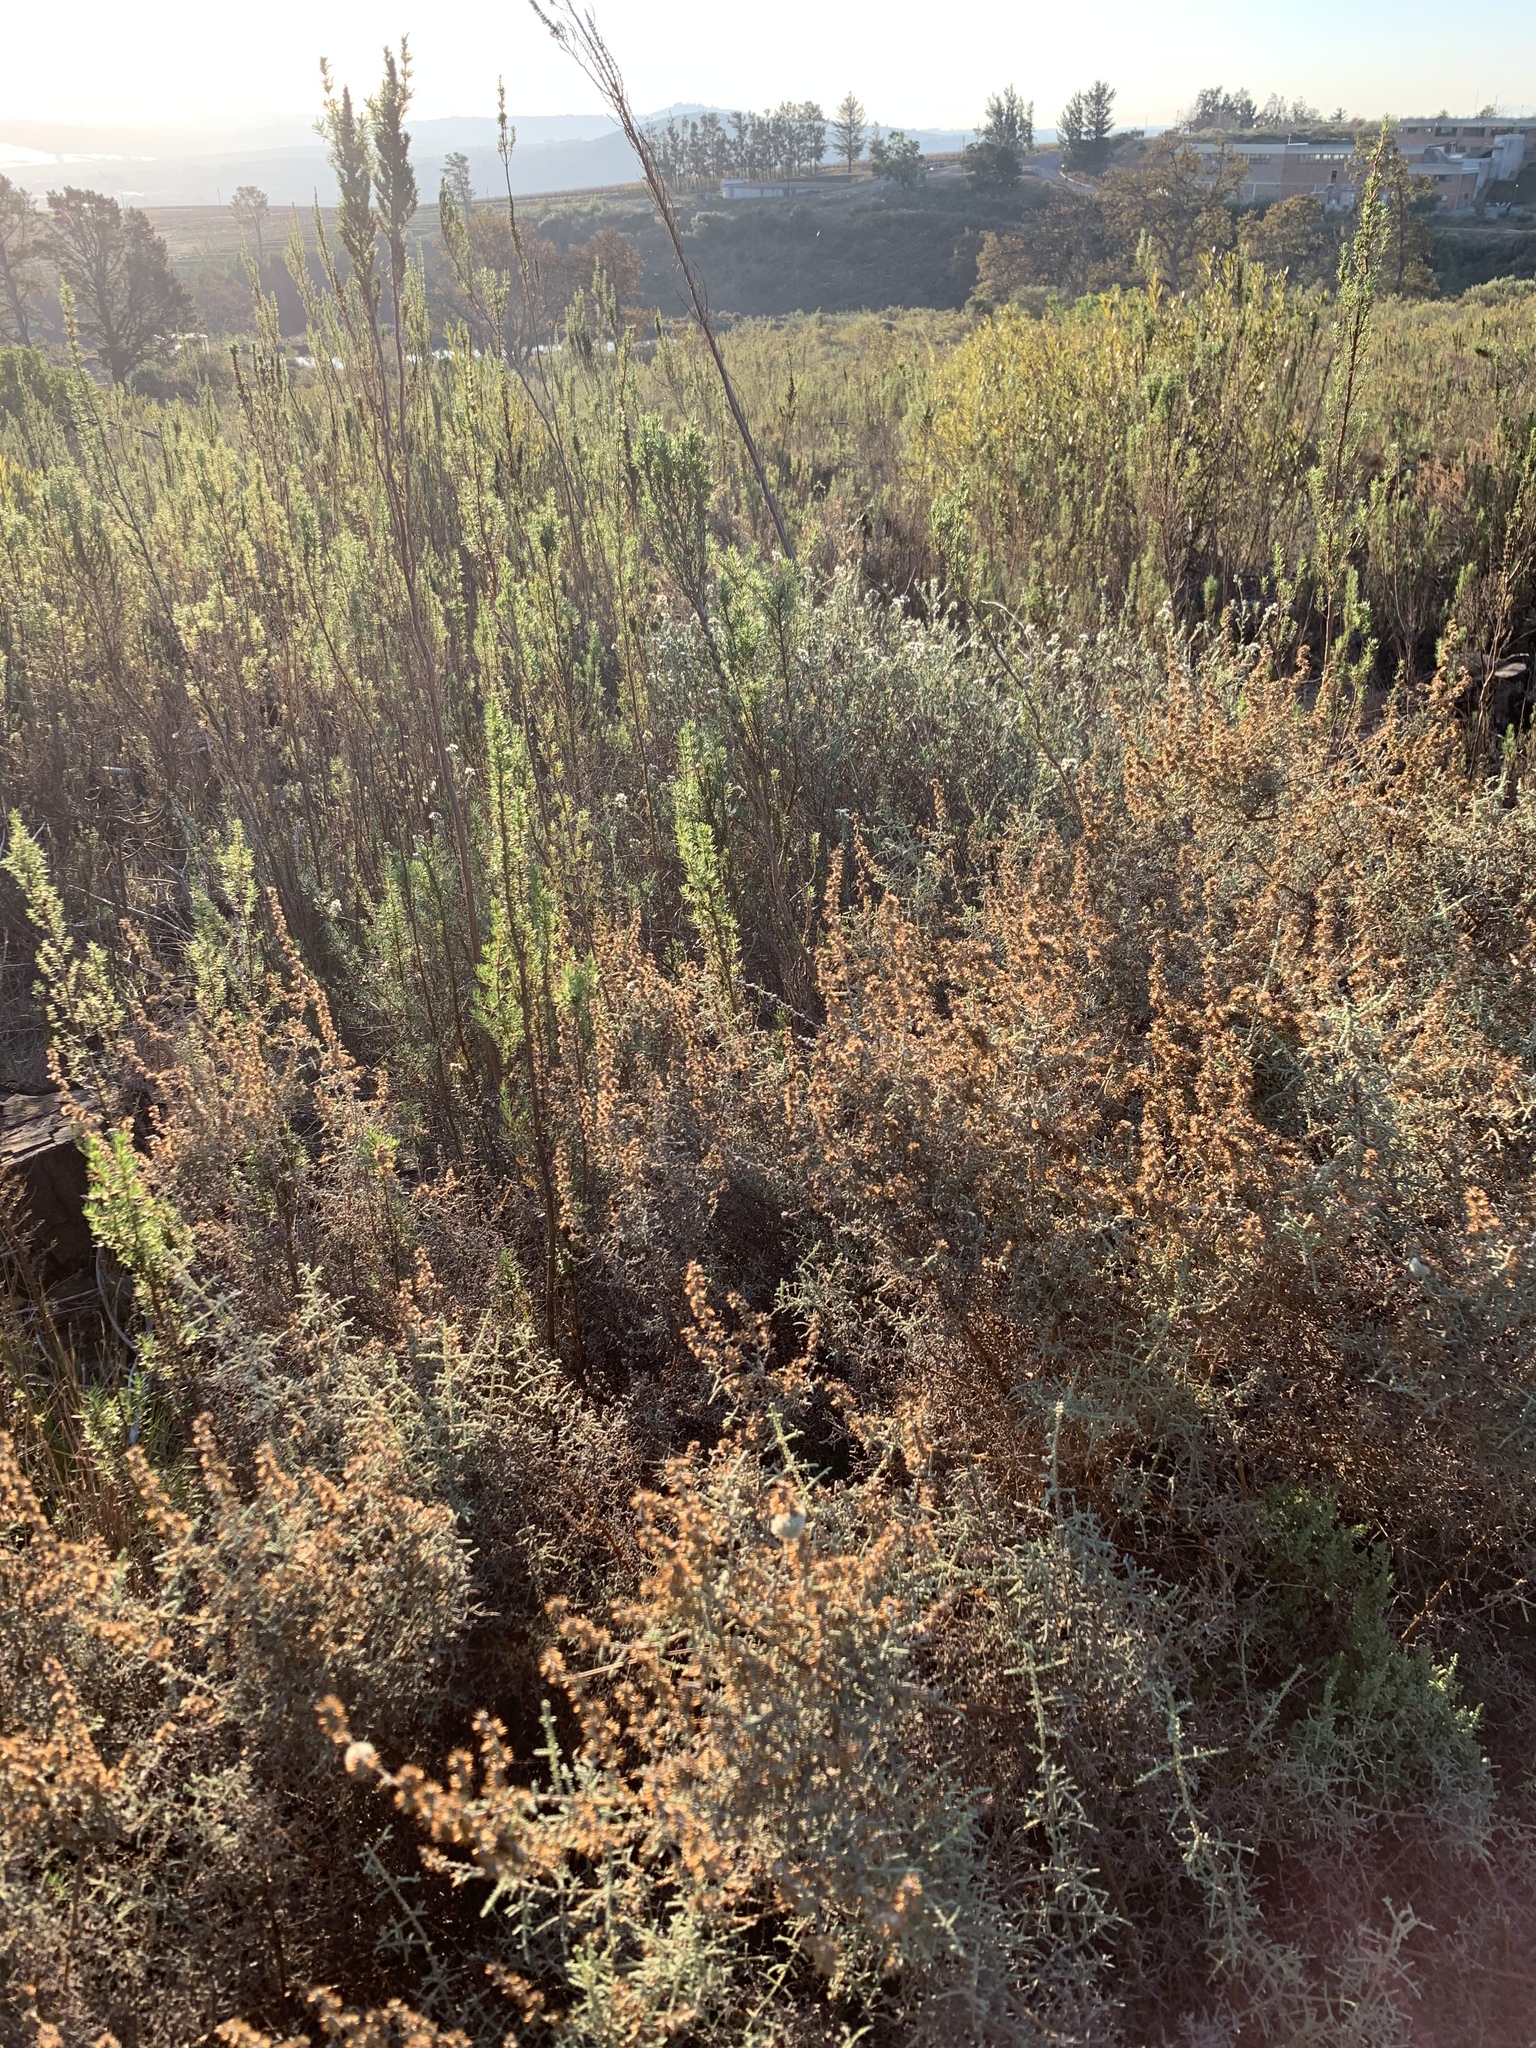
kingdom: Plantae
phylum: Tracheophyta
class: Magnoliopsida
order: Asterales
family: Asteraceae
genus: Seriphium
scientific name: Seriphium plumosum
